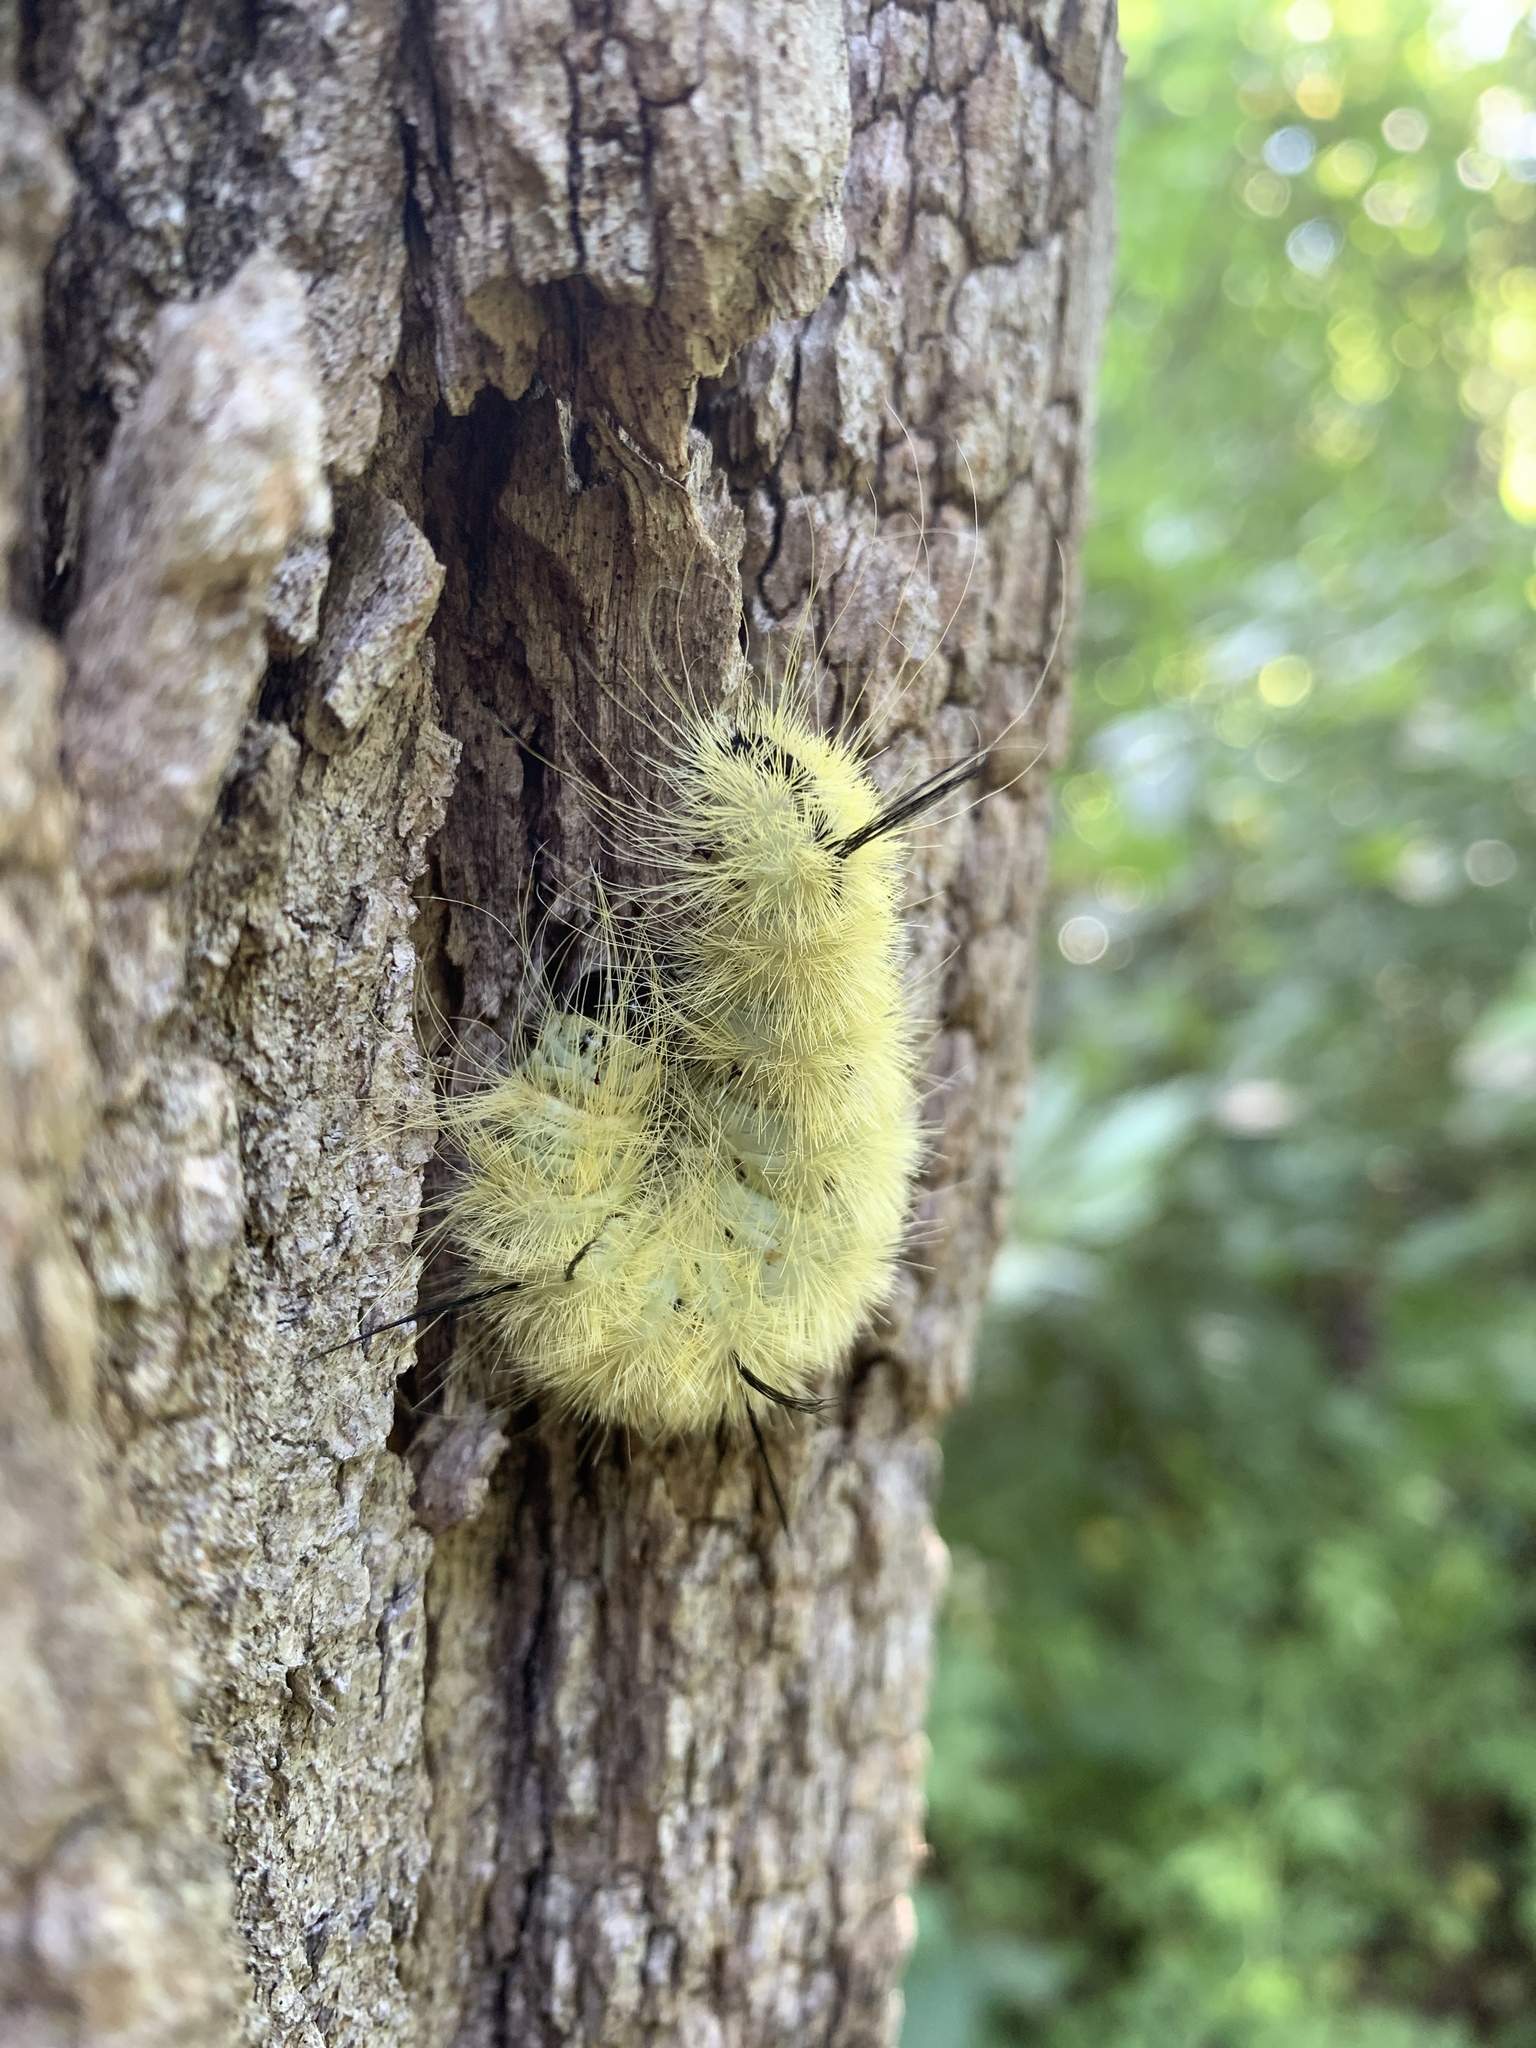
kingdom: Animalia
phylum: Arthropoda
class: Insecta
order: Lepidoptera
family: Noctuidae
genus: Acronicta
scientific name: Acronicta americana
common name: American dagger
